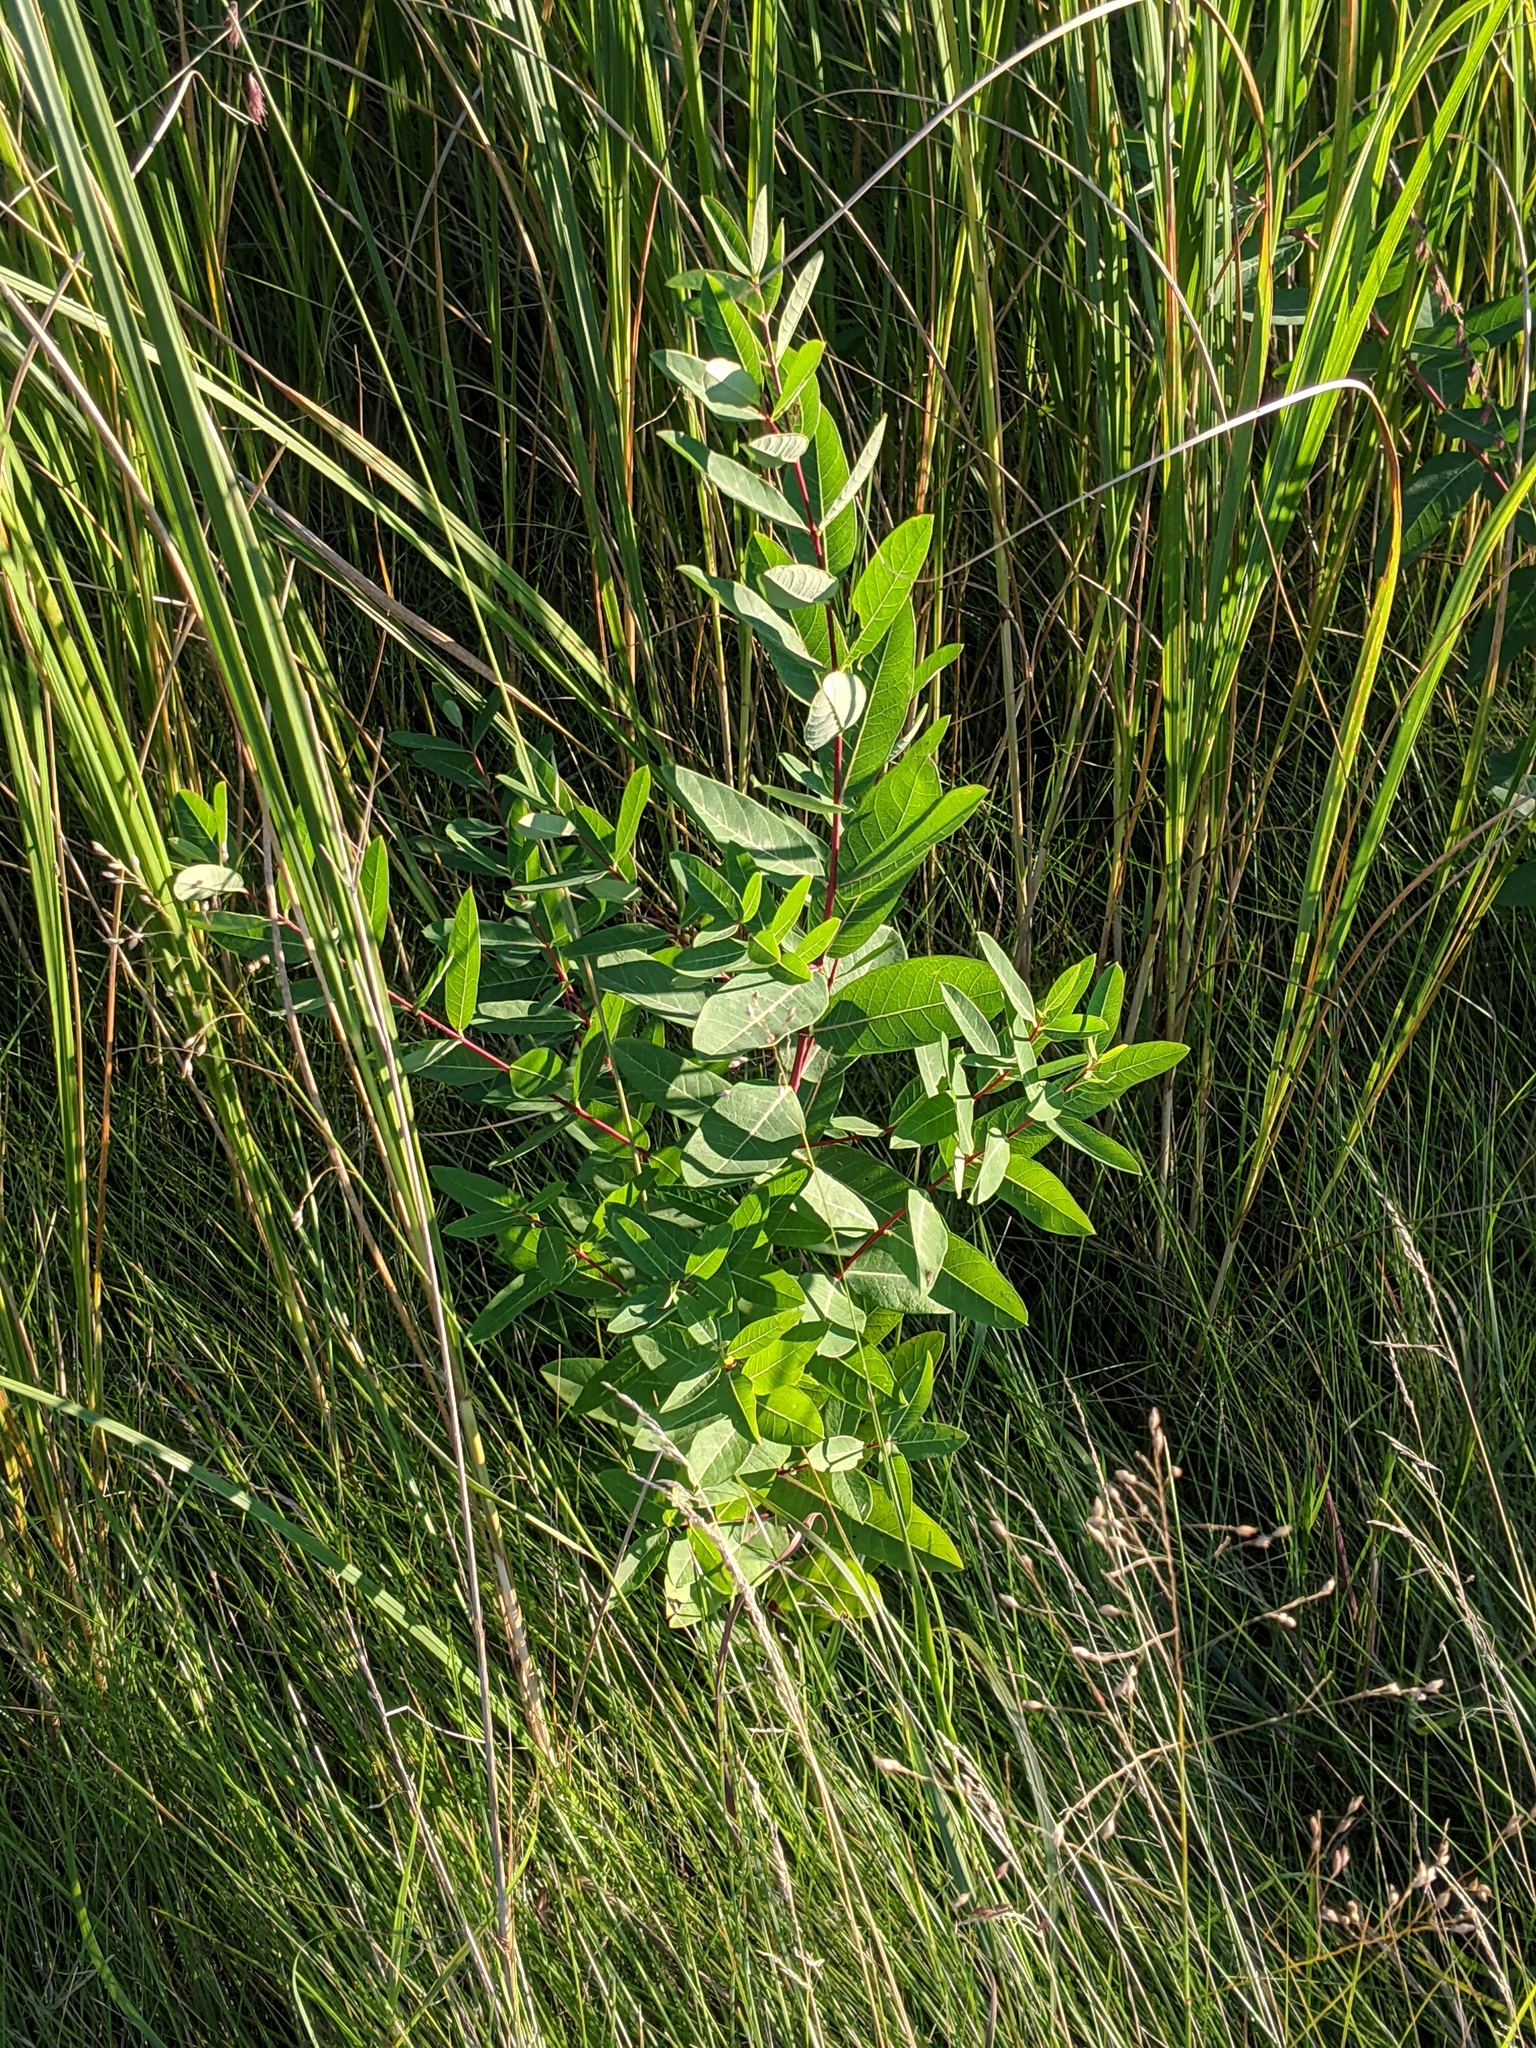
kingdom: Plantae
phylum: Tracheophyta
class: Magnoliopsida
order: Gentianales
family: Apocynaceae
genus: Apocynum
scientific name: Apocynum cannabinum
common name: Hemp dogbane
